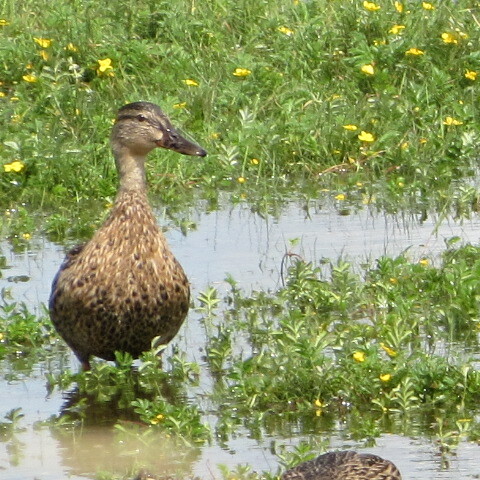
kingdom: Animalia
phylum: Chordata
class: Aves
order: Anseriformes
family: Anatidae
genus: Anas
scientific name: Anas platyrhynchos
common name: Mallard
